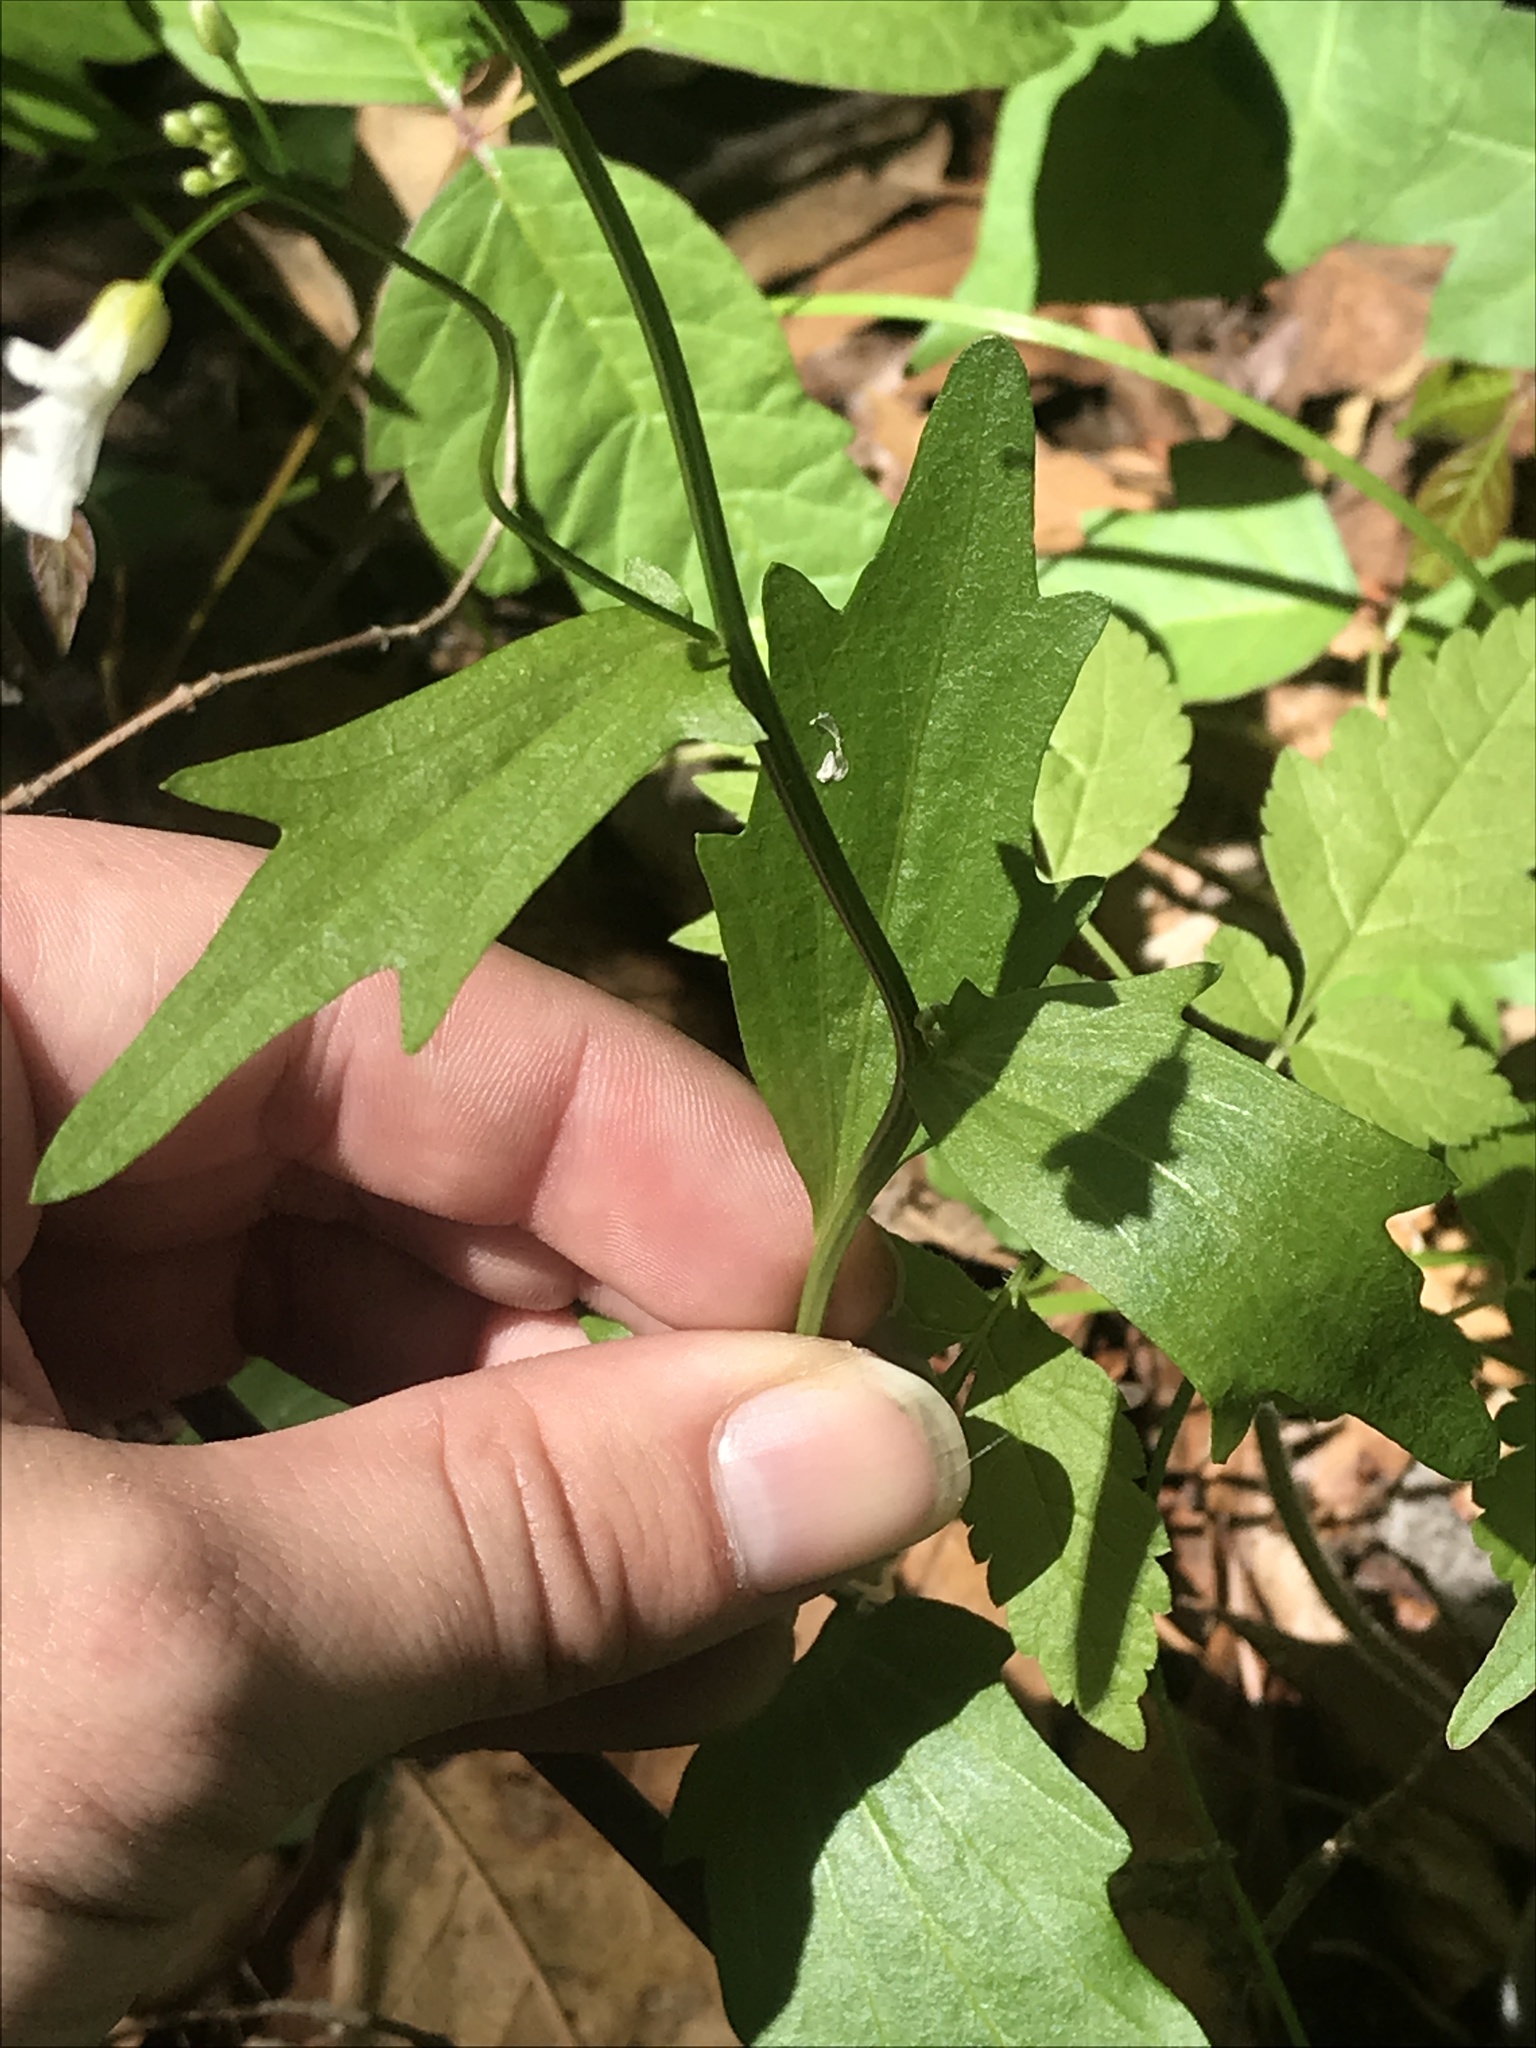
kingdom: Plantae
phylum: Tracheophyta
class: Magnoliopsida
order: Brassicales
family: Brassicaceae
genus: Cardamine
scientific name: Cardamine bulbosa
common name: Spring cress
